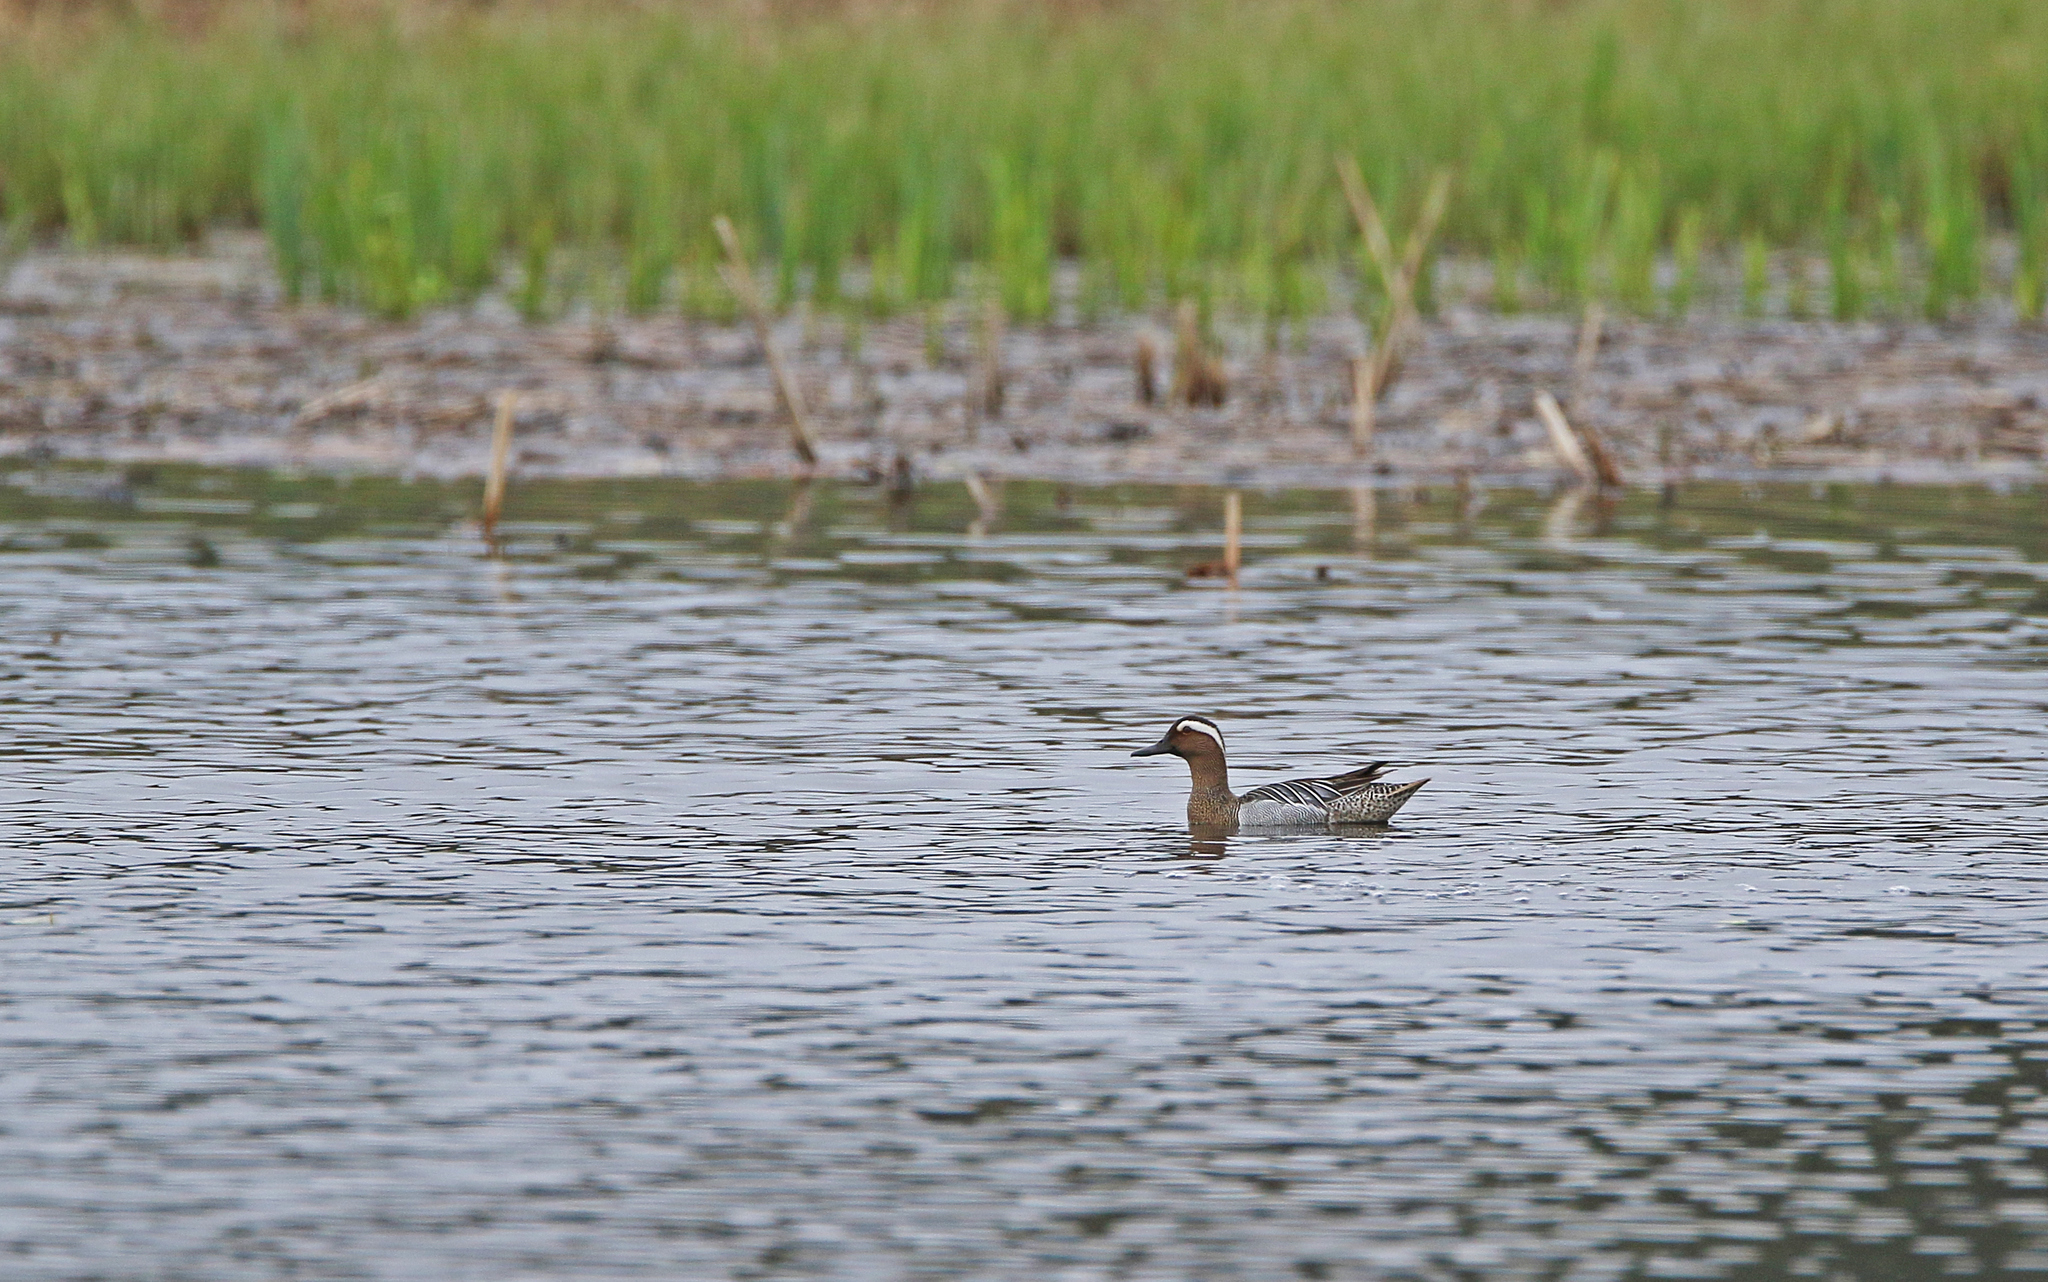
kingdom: Animalia
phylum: Chordata
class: Aves
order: Anseriformes
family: Anatidae
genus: Spatula
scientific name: Spatula querquedula
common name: Garganey
